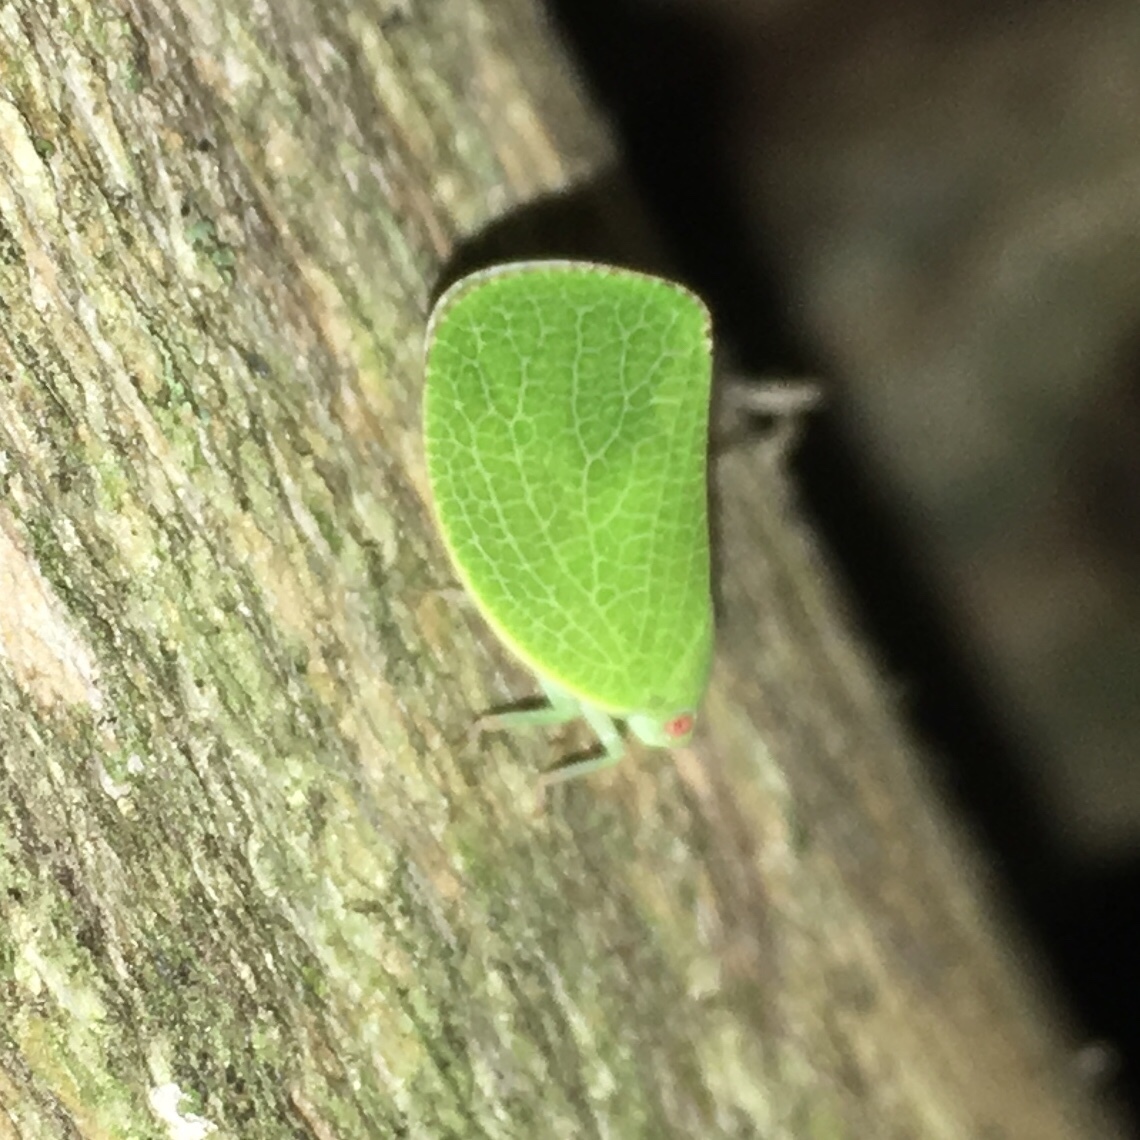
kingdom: Animalia
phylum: Arthropoda
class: Insecta
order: Hemiptera
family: Acanaloniidae
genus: Acanalonia
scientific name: Acanalonia conica
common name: Green cone-headed planthopper
